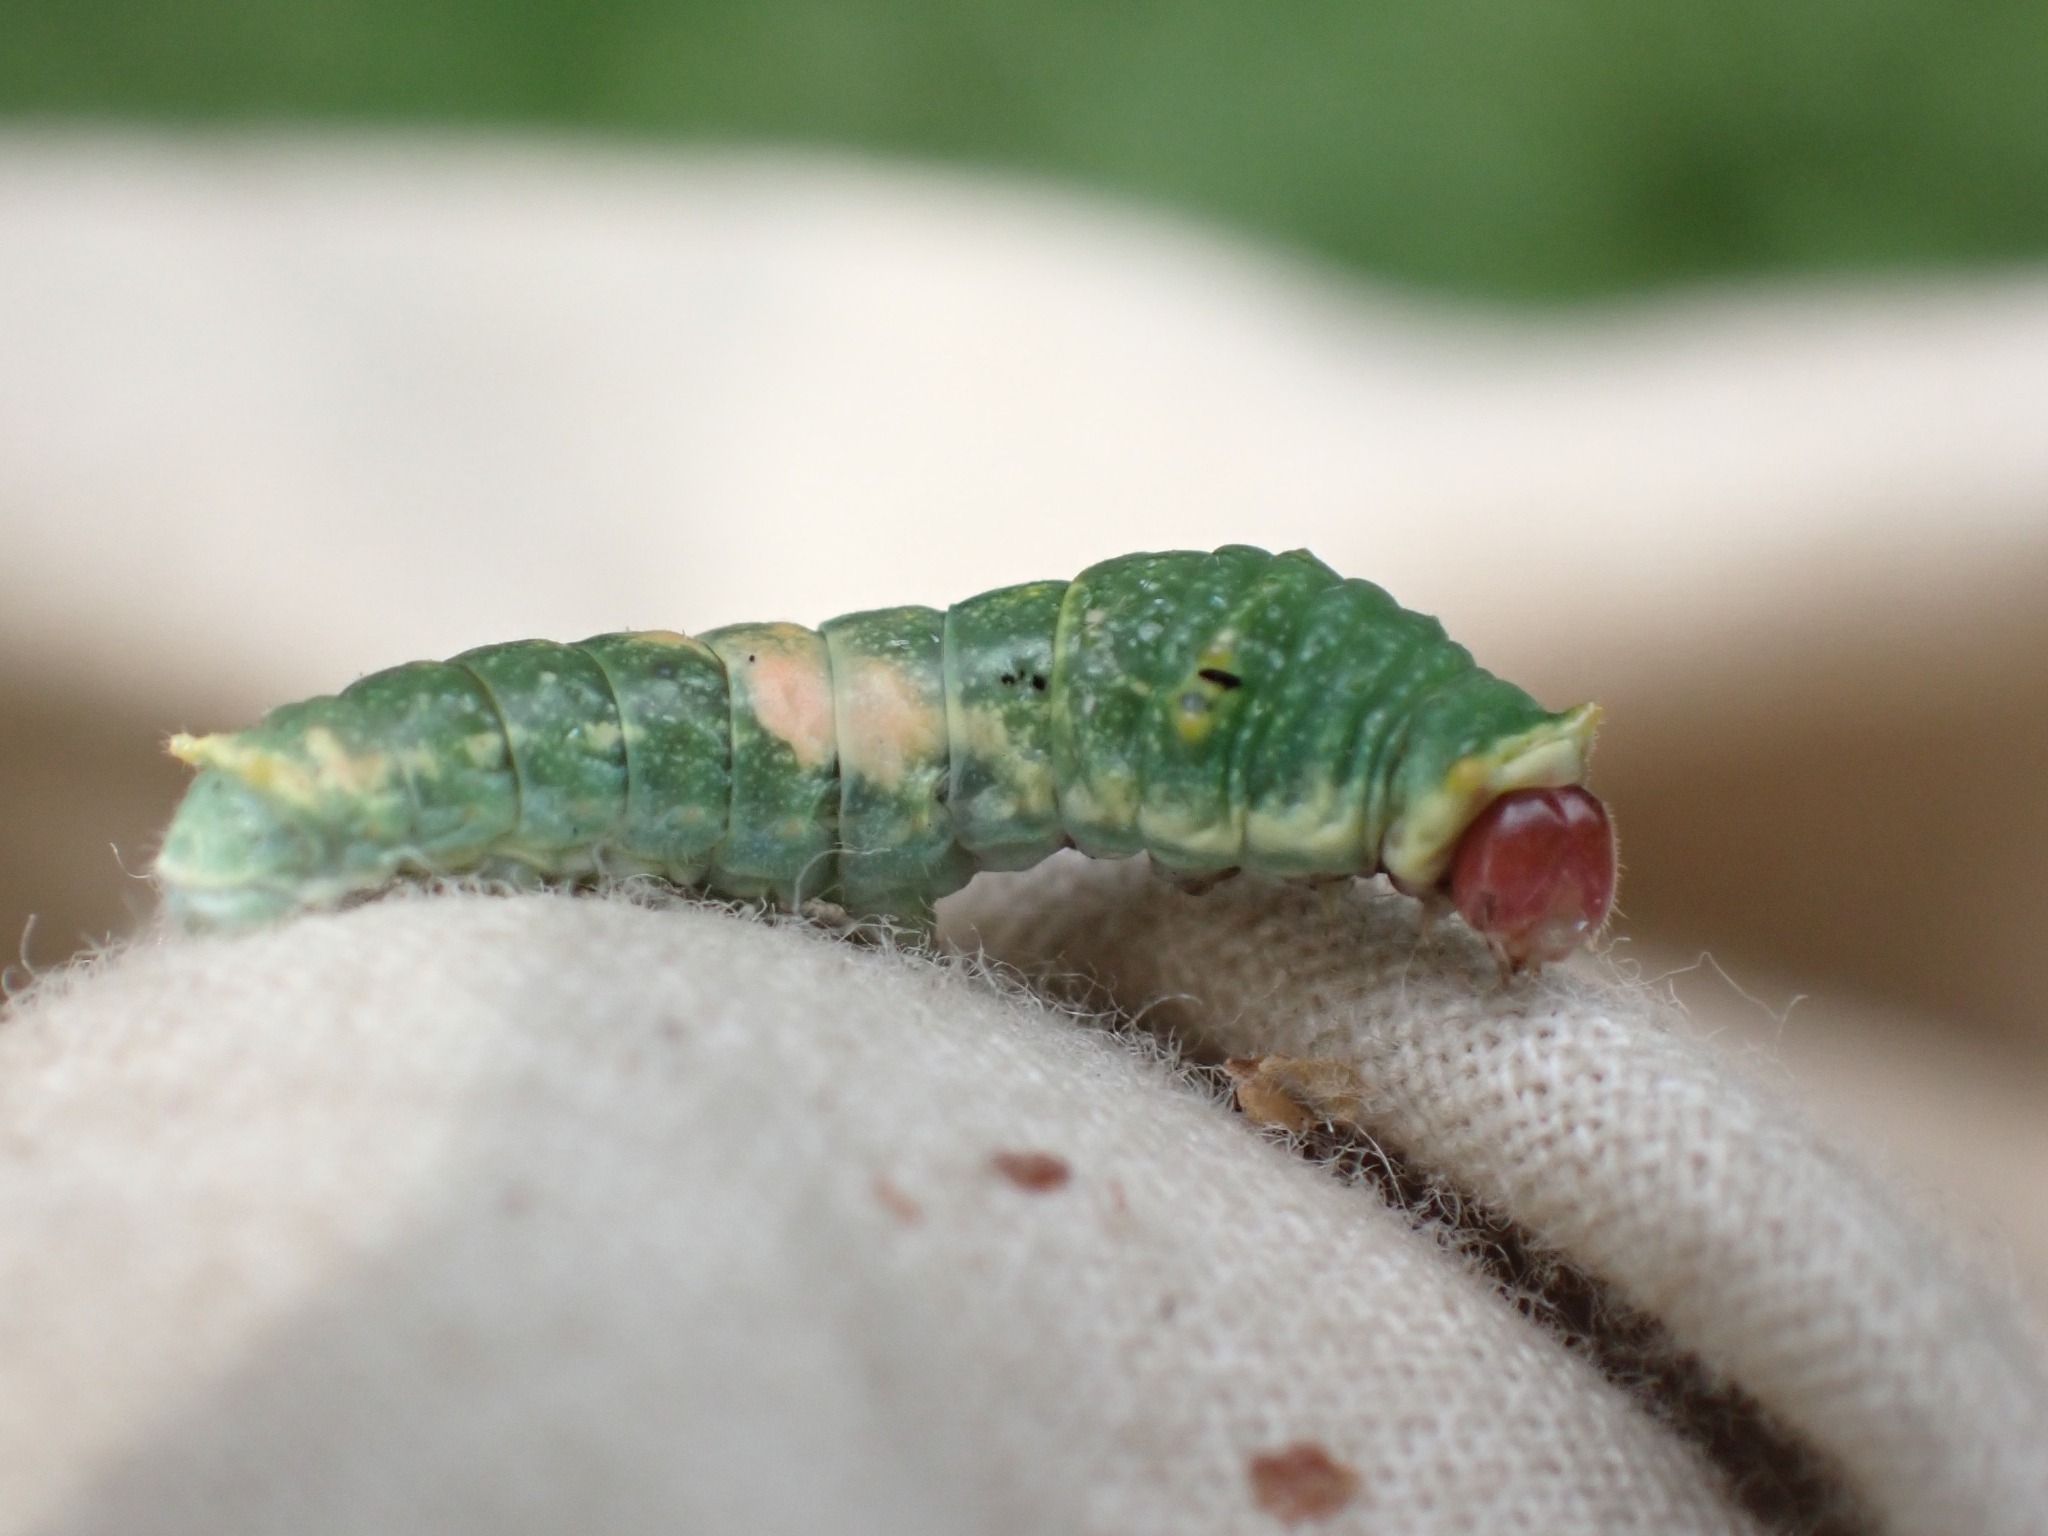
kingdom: Animalia
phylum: Arthropoda
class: Insecta
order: Lepidoptera
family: Papilionidae
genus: Papilio
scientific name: Papilio canadensis
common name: Canadian tiger swallowtail
